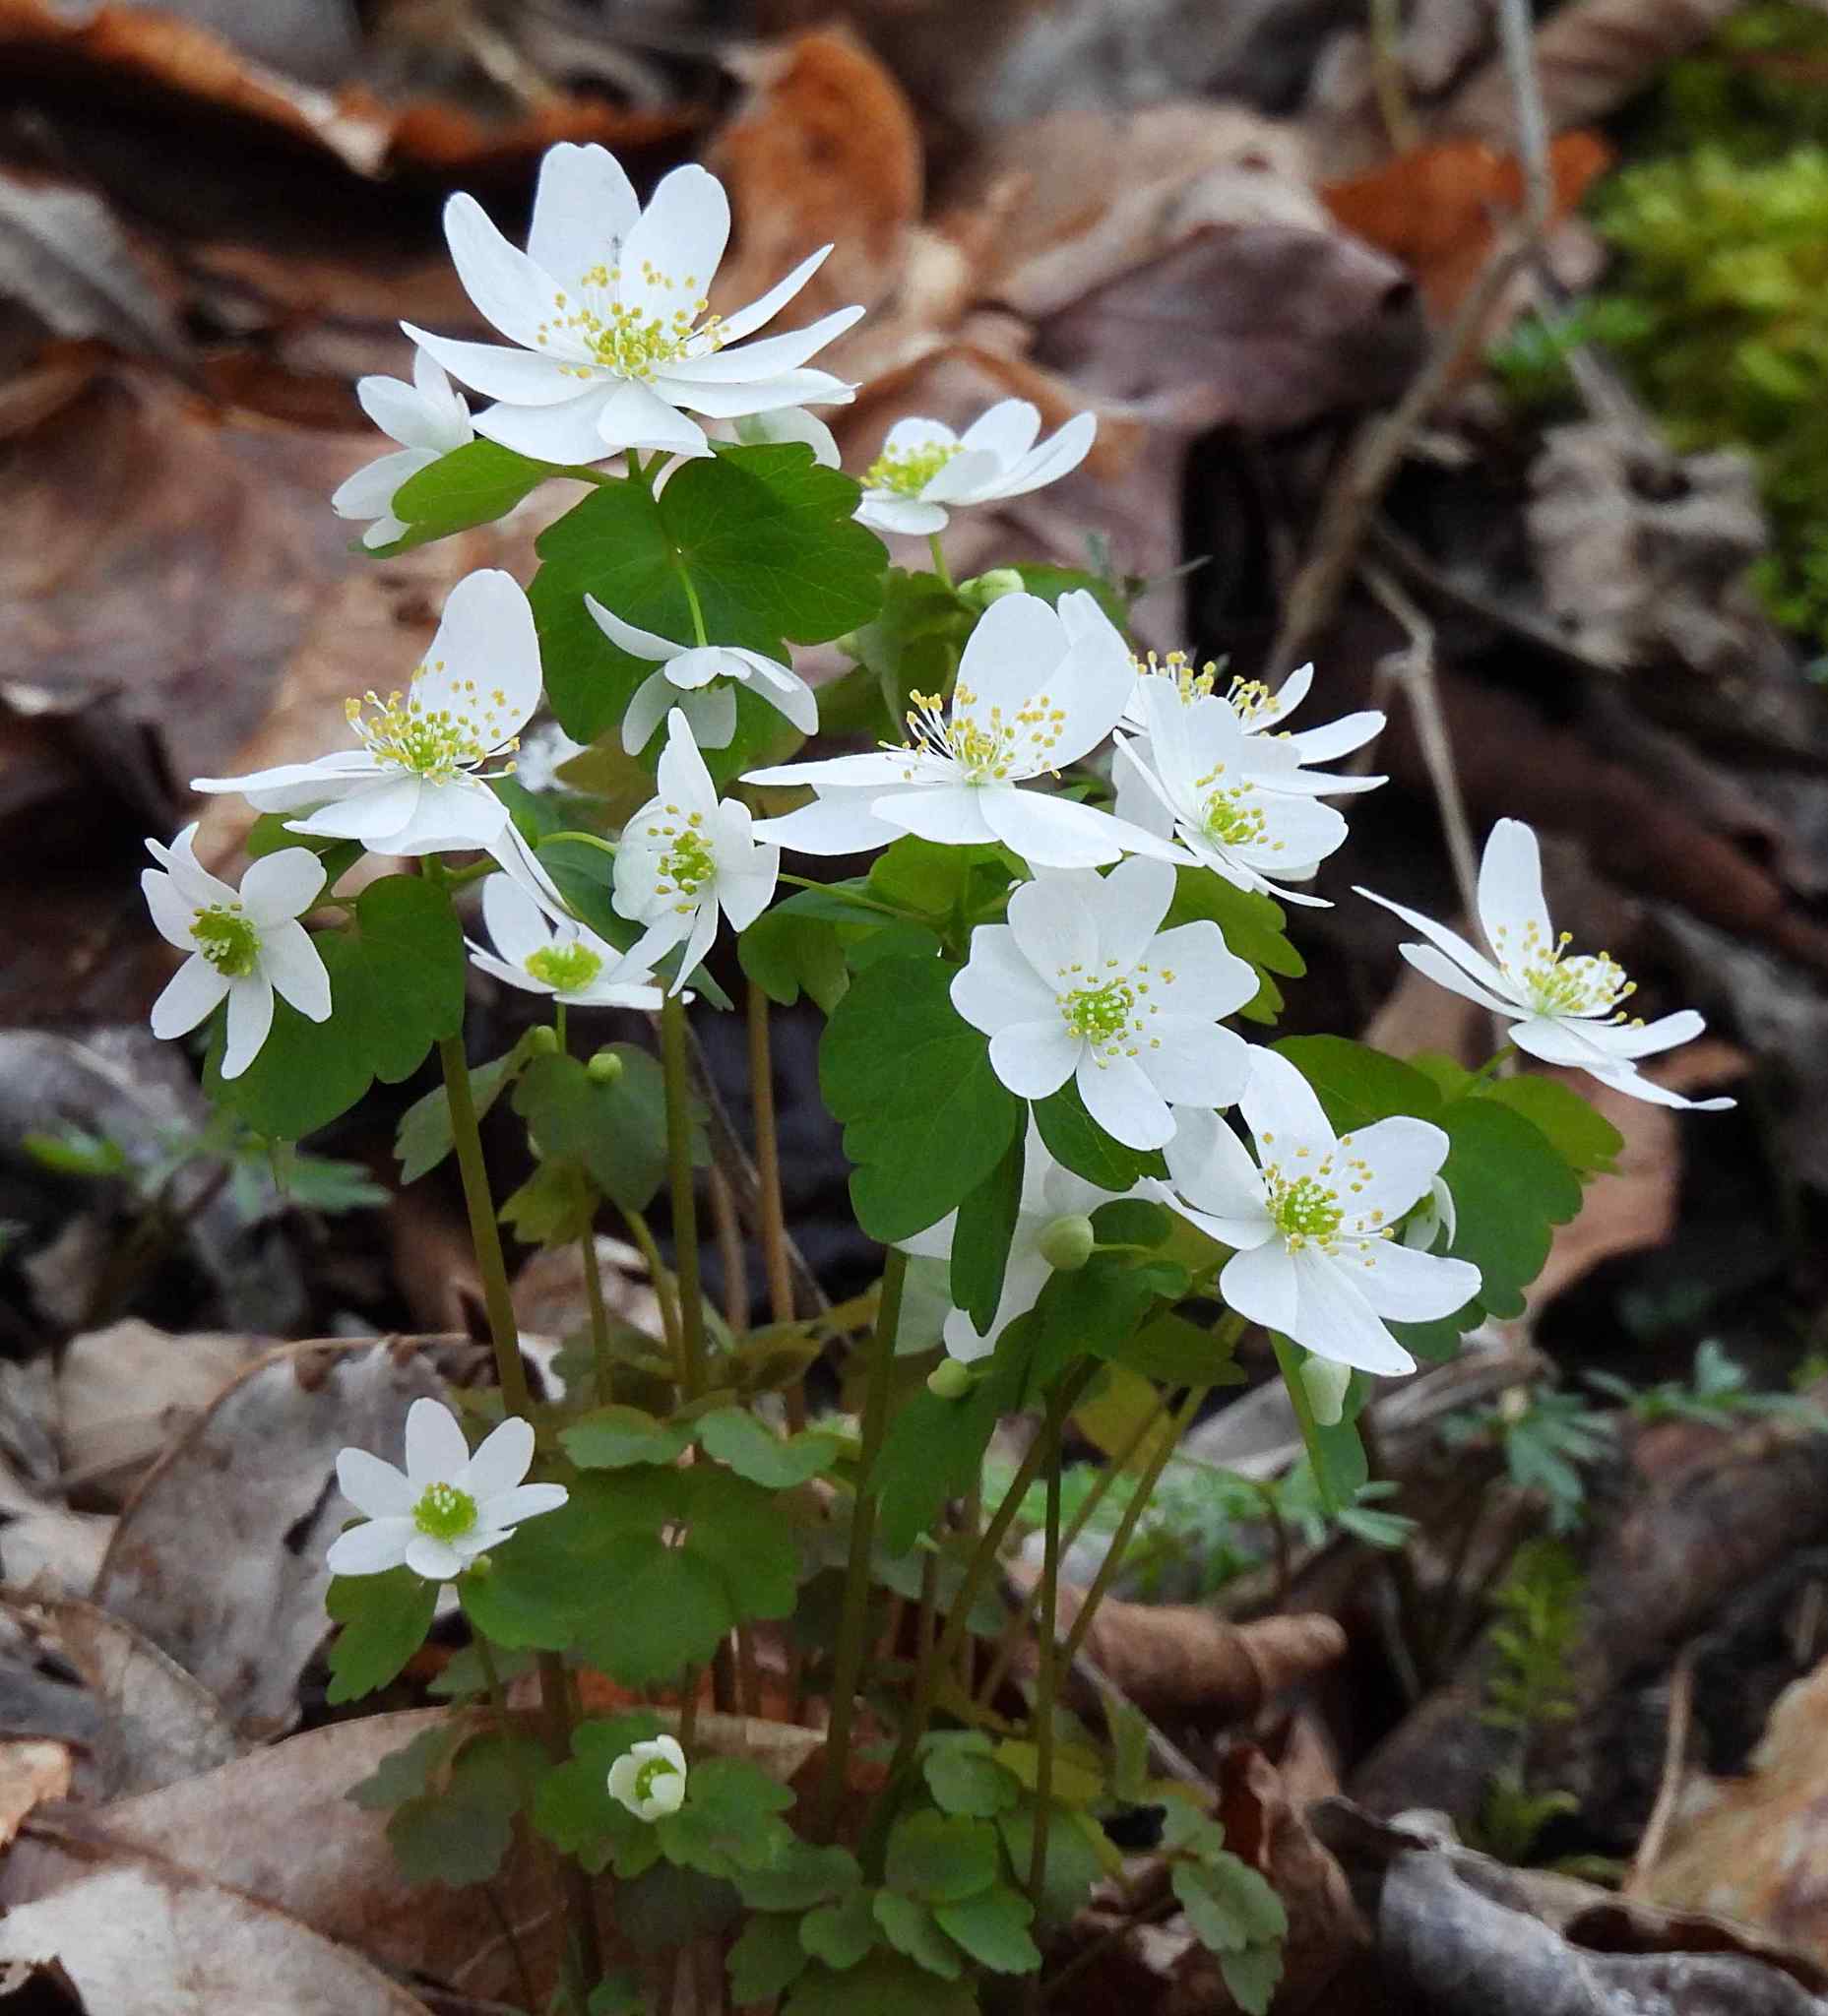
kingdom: Plantae
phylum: Tracheophyta
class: Magnoliopsida
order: Ranunculales
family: Ranunculaceae
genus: Thalictrum
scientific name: Thalictrum thalictroides
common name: Rue-anemone
